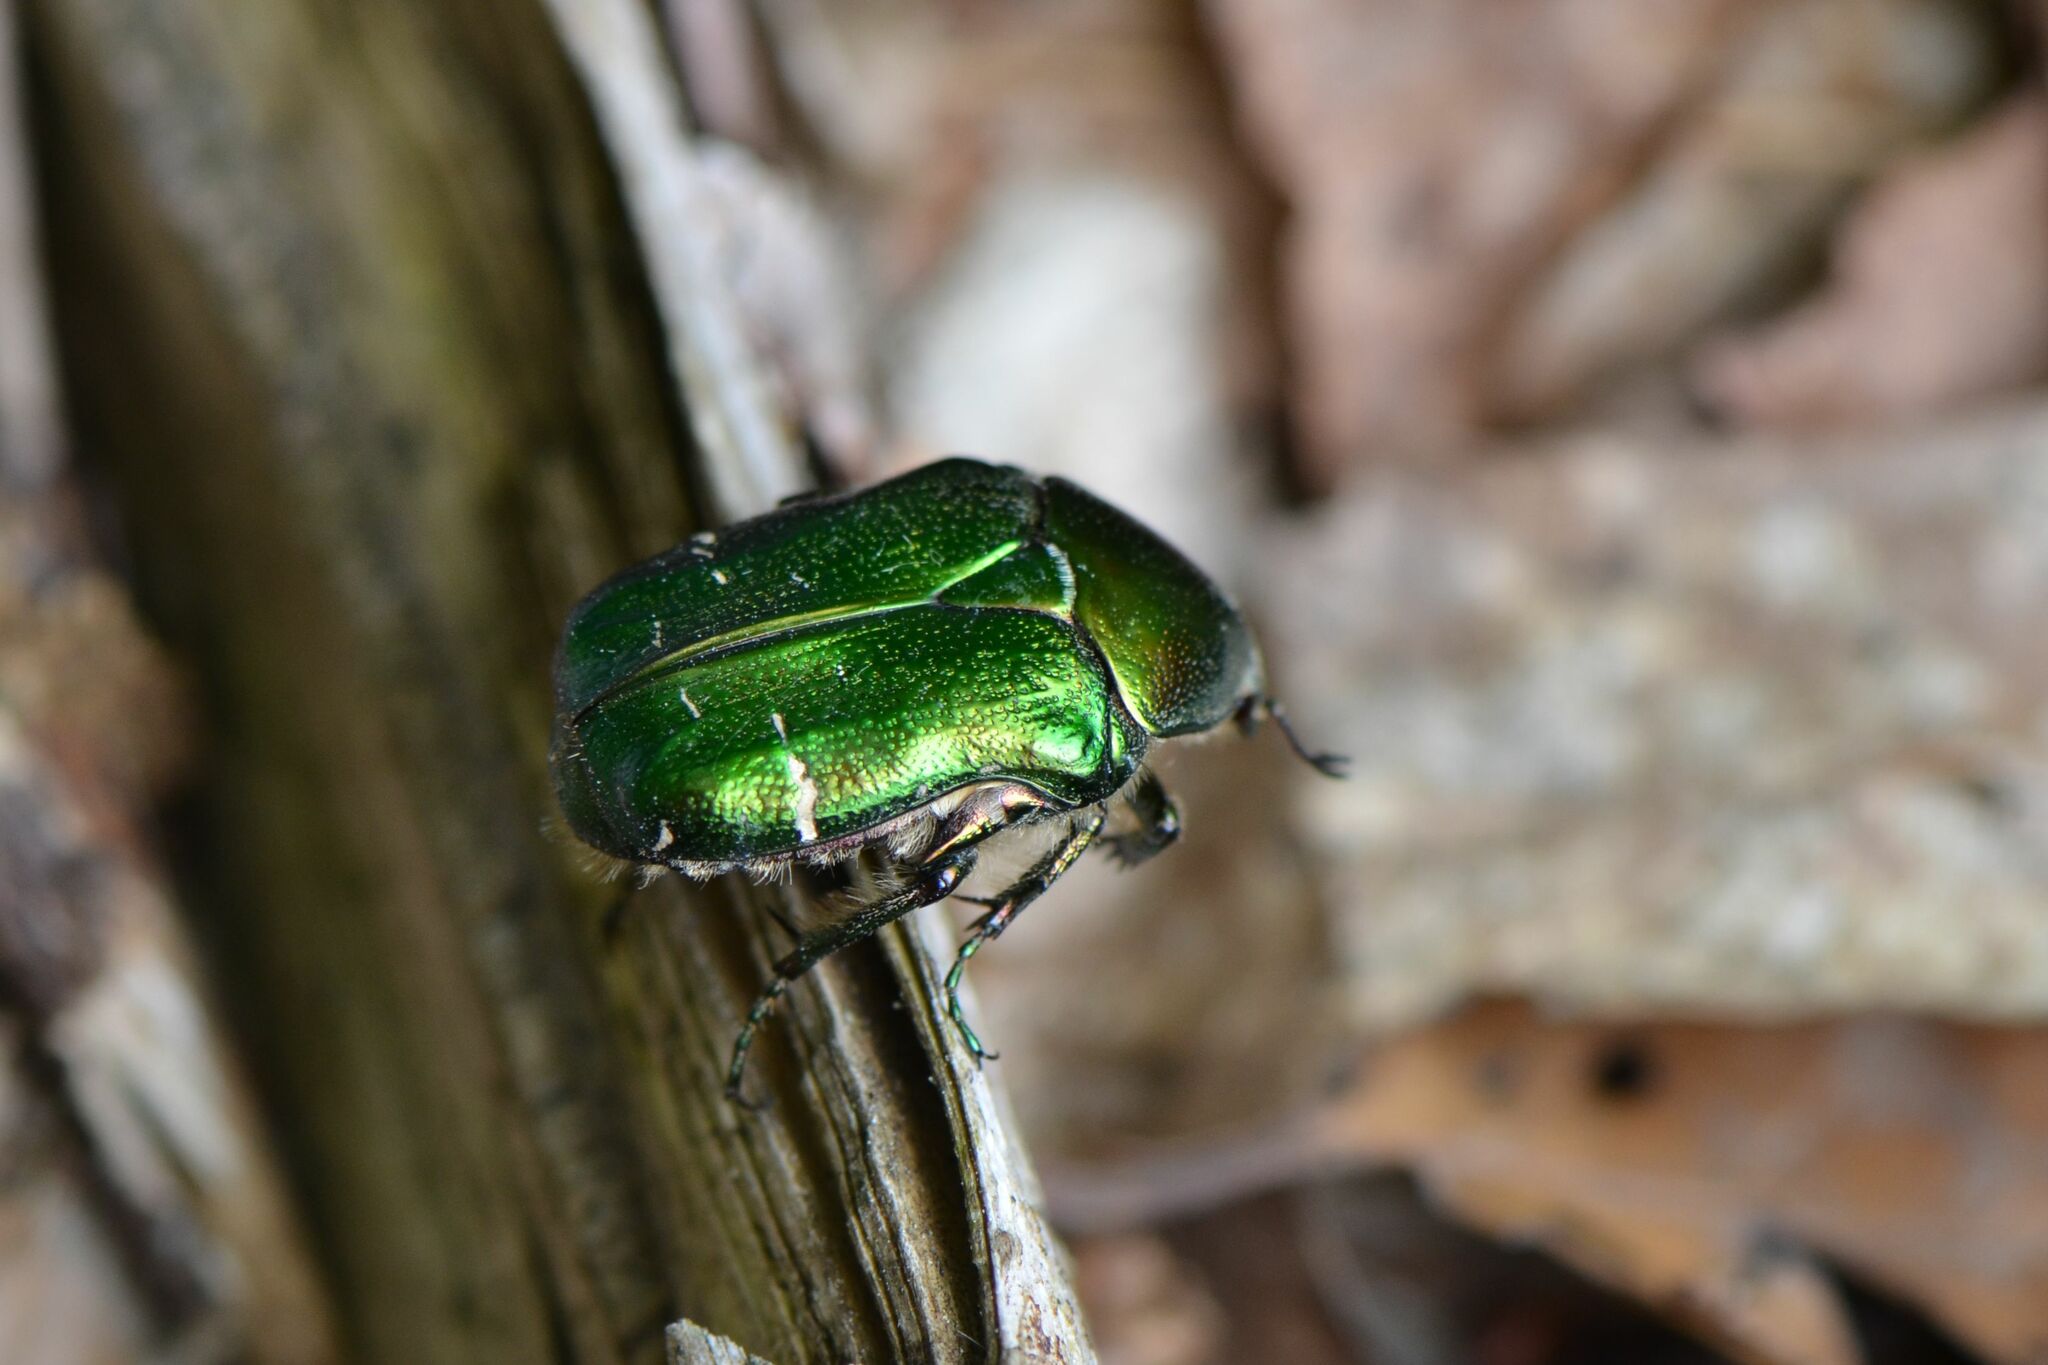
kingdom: Animalia
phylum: Arthropoda
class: Insecta
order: Coleoptera
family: Scarabaeidae
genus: Cetonia
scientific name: Cetonia aurata
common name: Rose chafer
